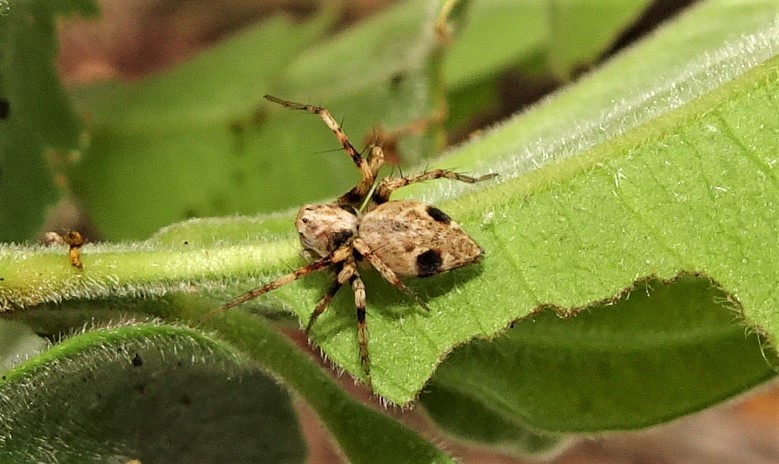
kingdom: Animalia
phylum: Arthropoda
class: Arachnida
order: Araneae
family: Oxyopidae
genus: Oxyopes
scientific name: Oxyopes variabilis
